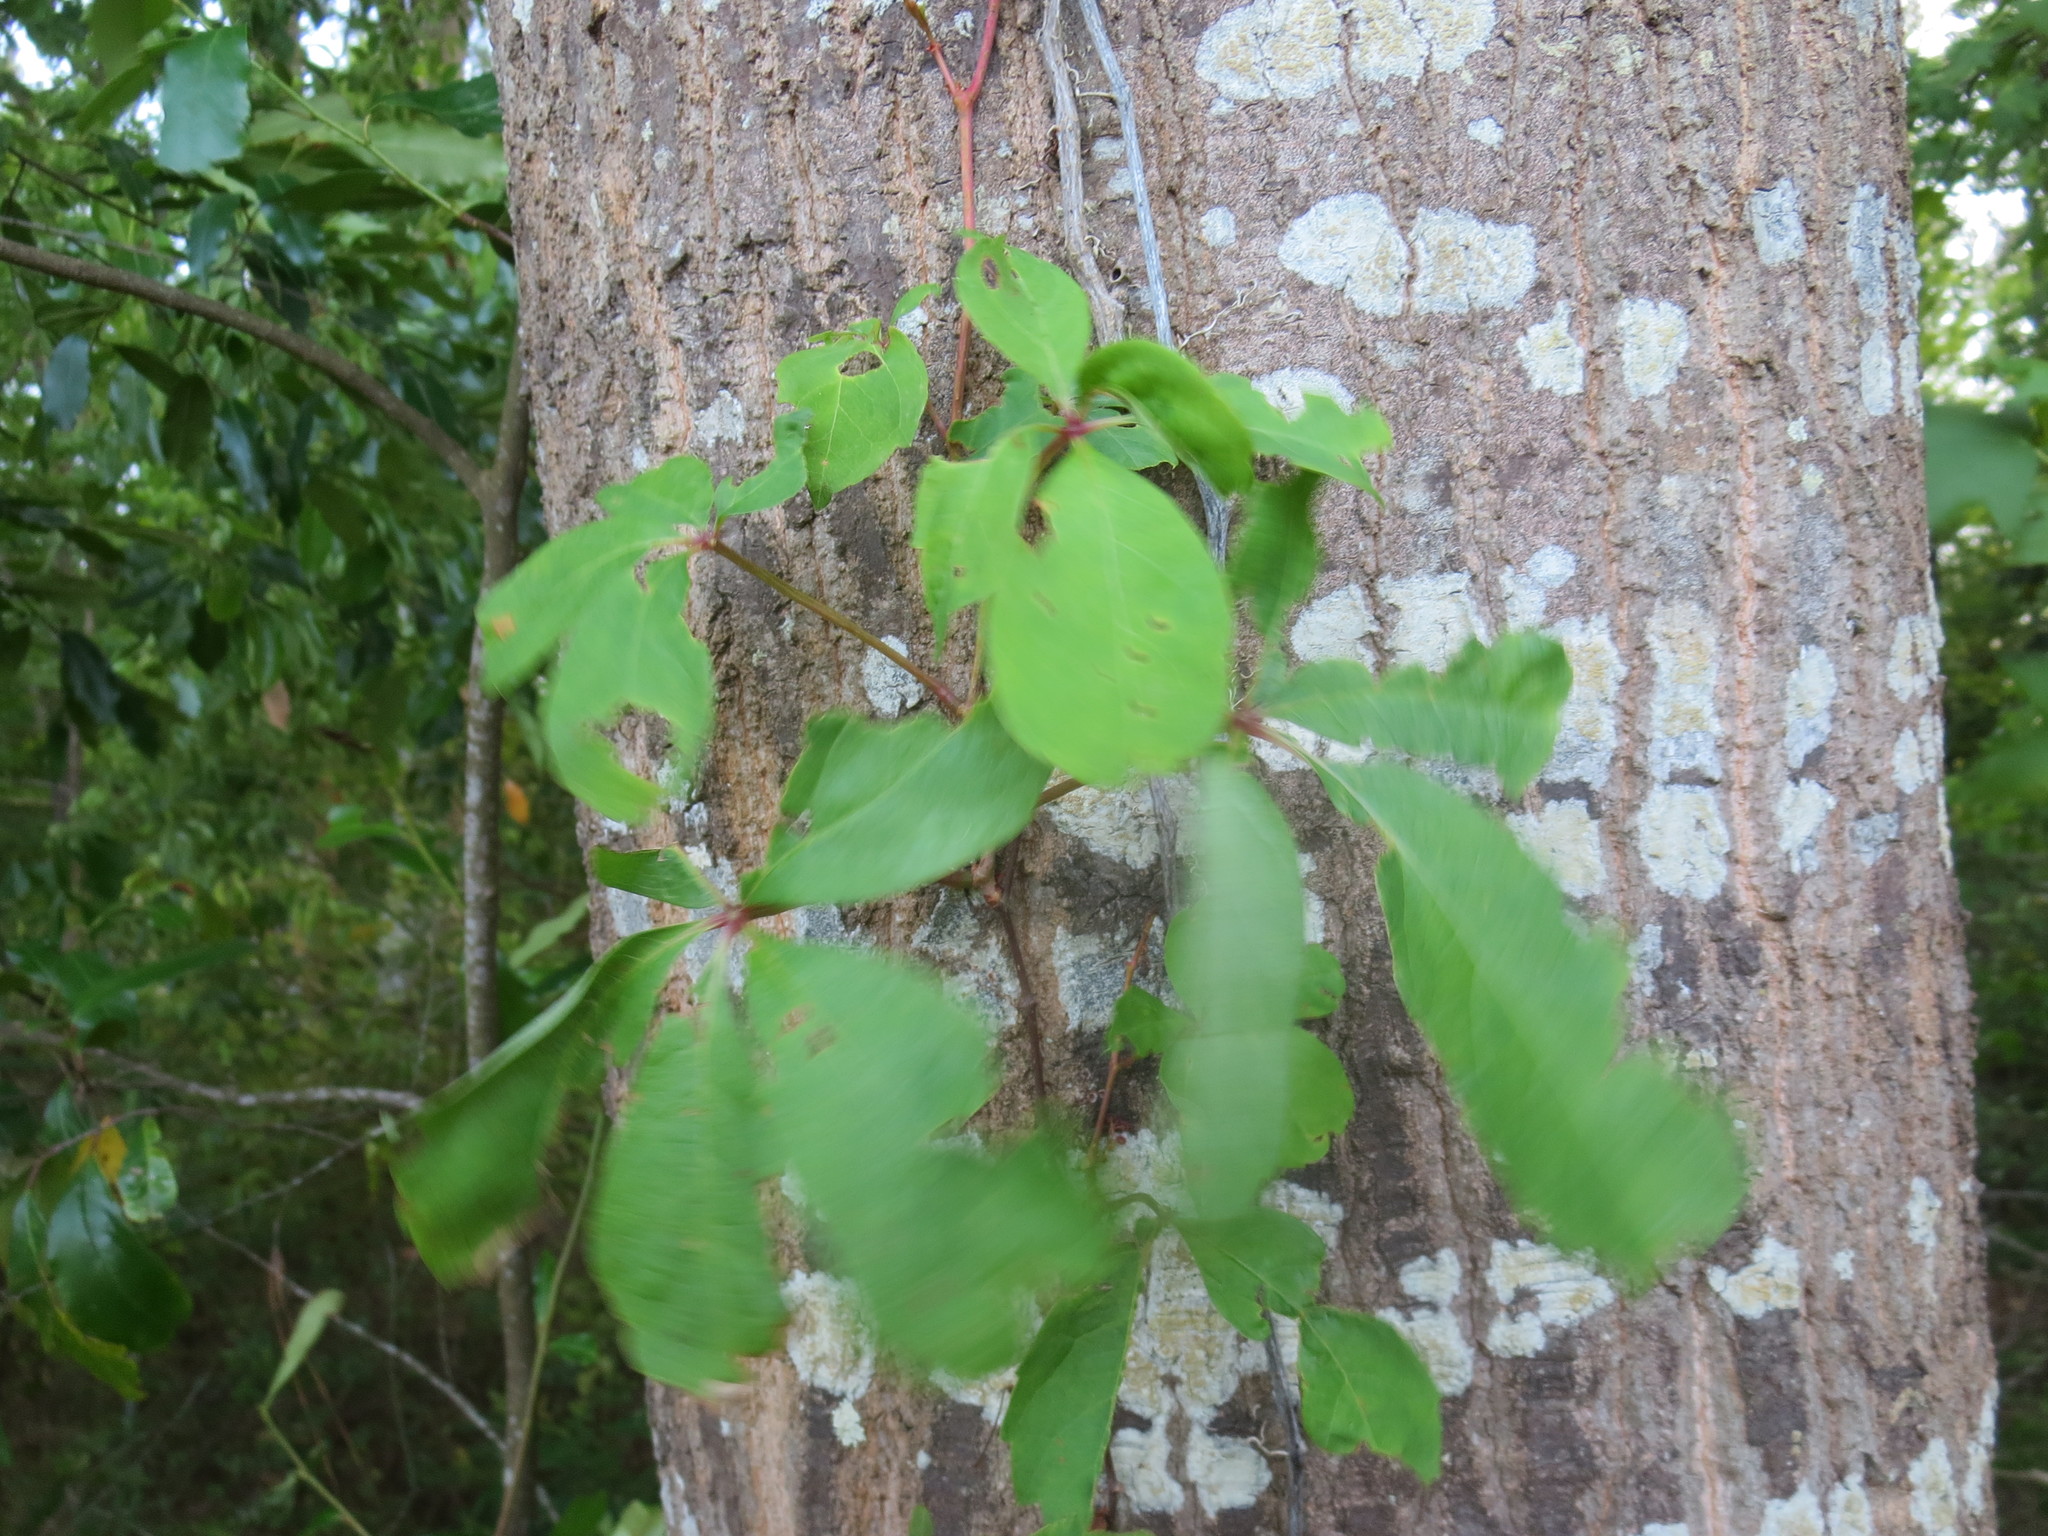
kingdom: Plantae
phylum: Tracheophyta
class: Magnoliopsida
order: Vitales
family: Vitaceae
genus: Parthenocissus
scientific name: Parthenocissus quinquefolia
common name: Virginia-creeper
